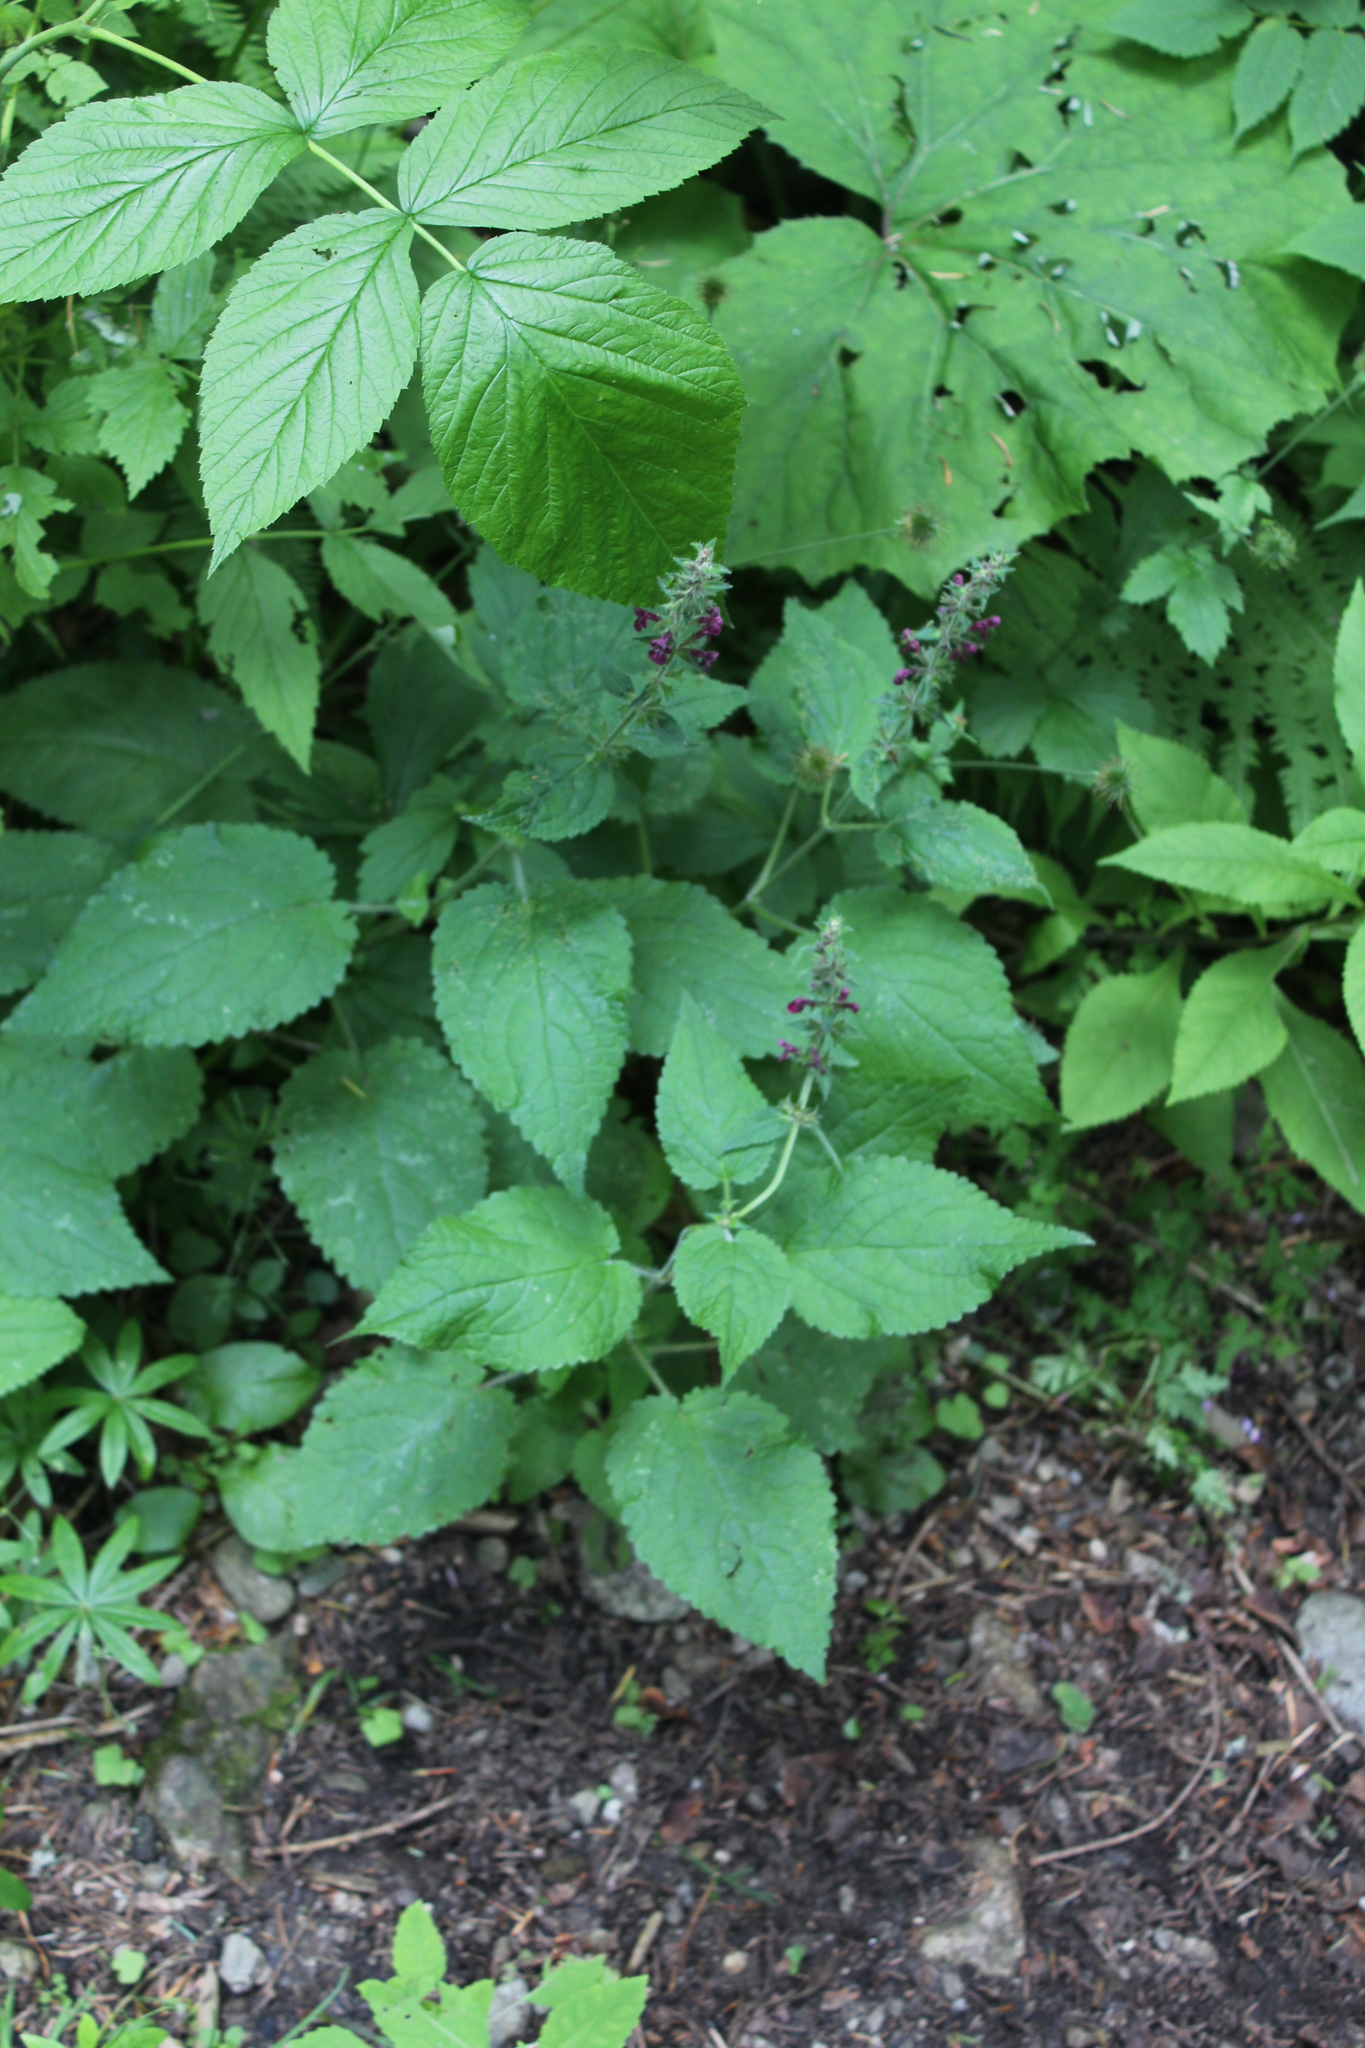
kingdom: Plantae
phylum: Tracheophyta
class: Magnoliopsida
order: Lamiales
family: Lamiaceae
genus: Stachys
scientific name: Stachys sylvatica
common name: Hedge woundwort
